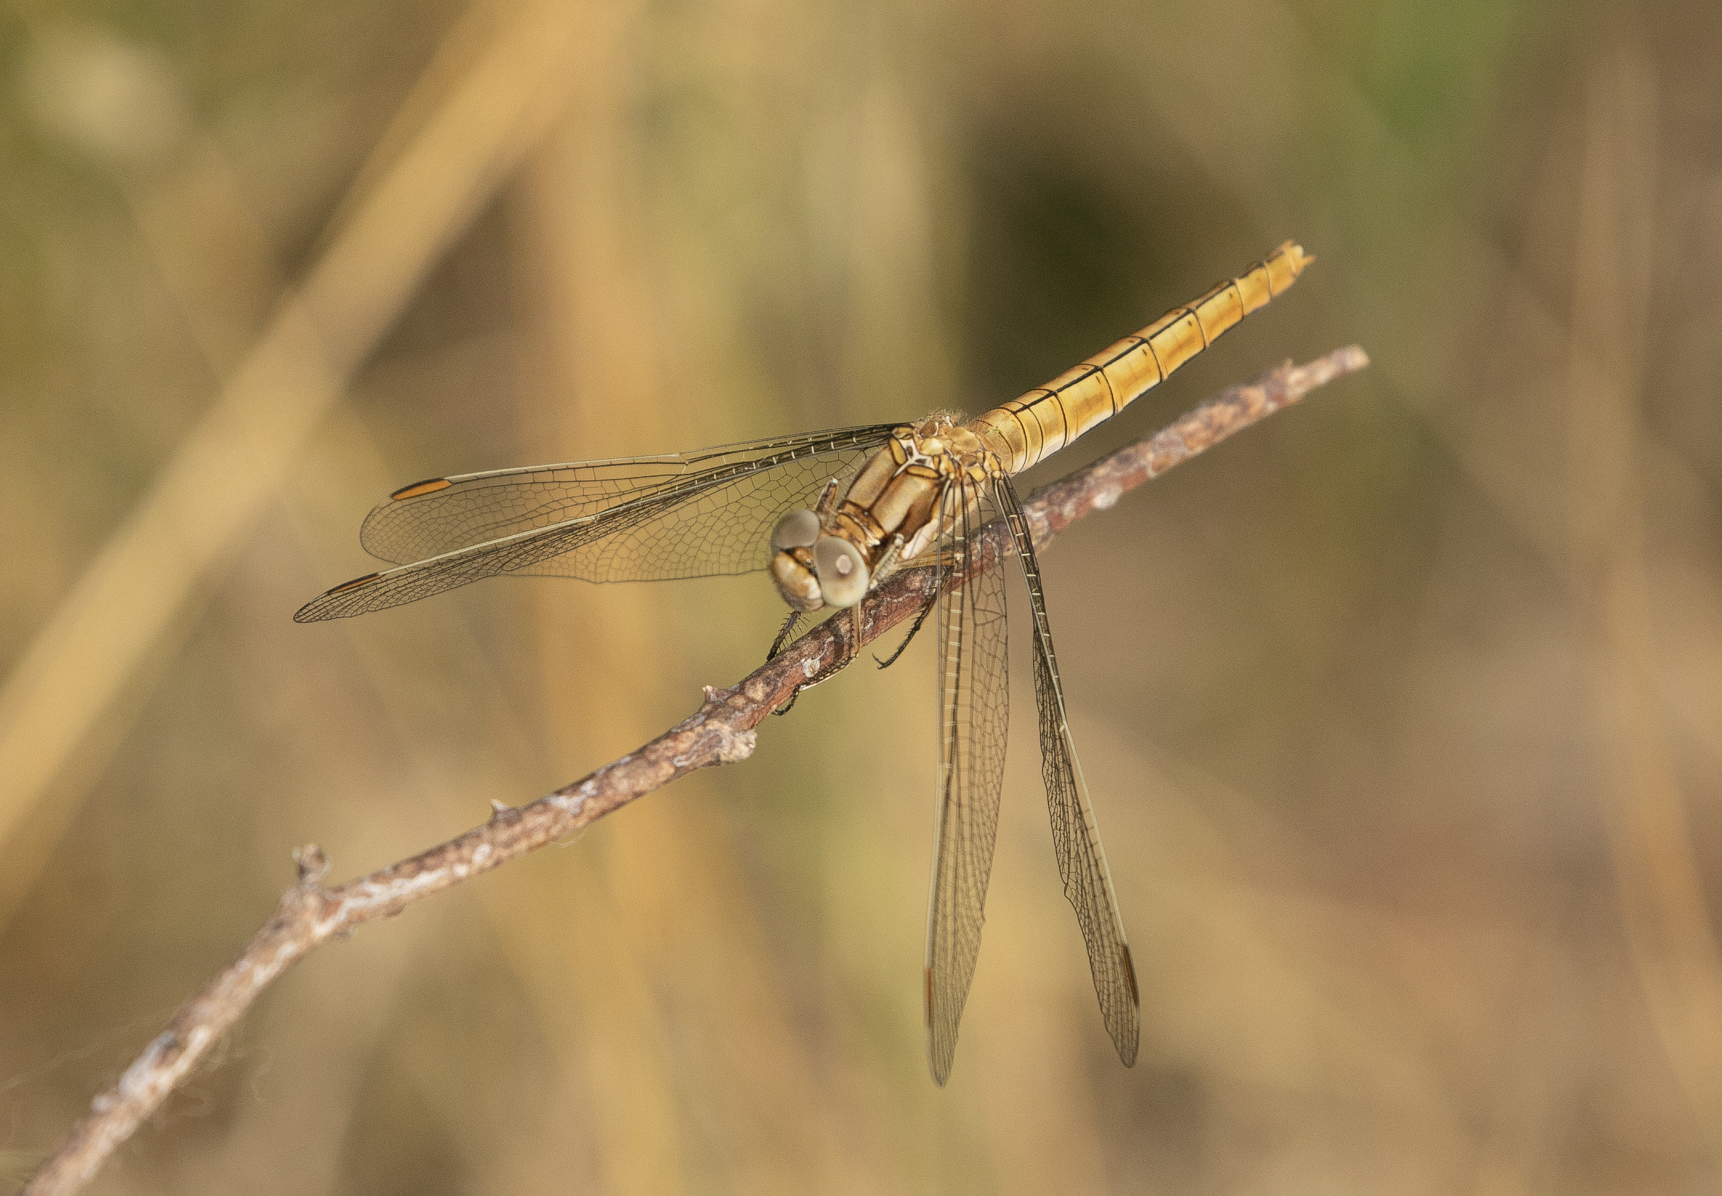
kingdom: Animalia
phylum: Arthropoda
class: Insecta
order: Odonata
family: Libellulidae
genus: Orthetrum
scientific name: Orthetrum brunneum
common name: Southern skimmer
